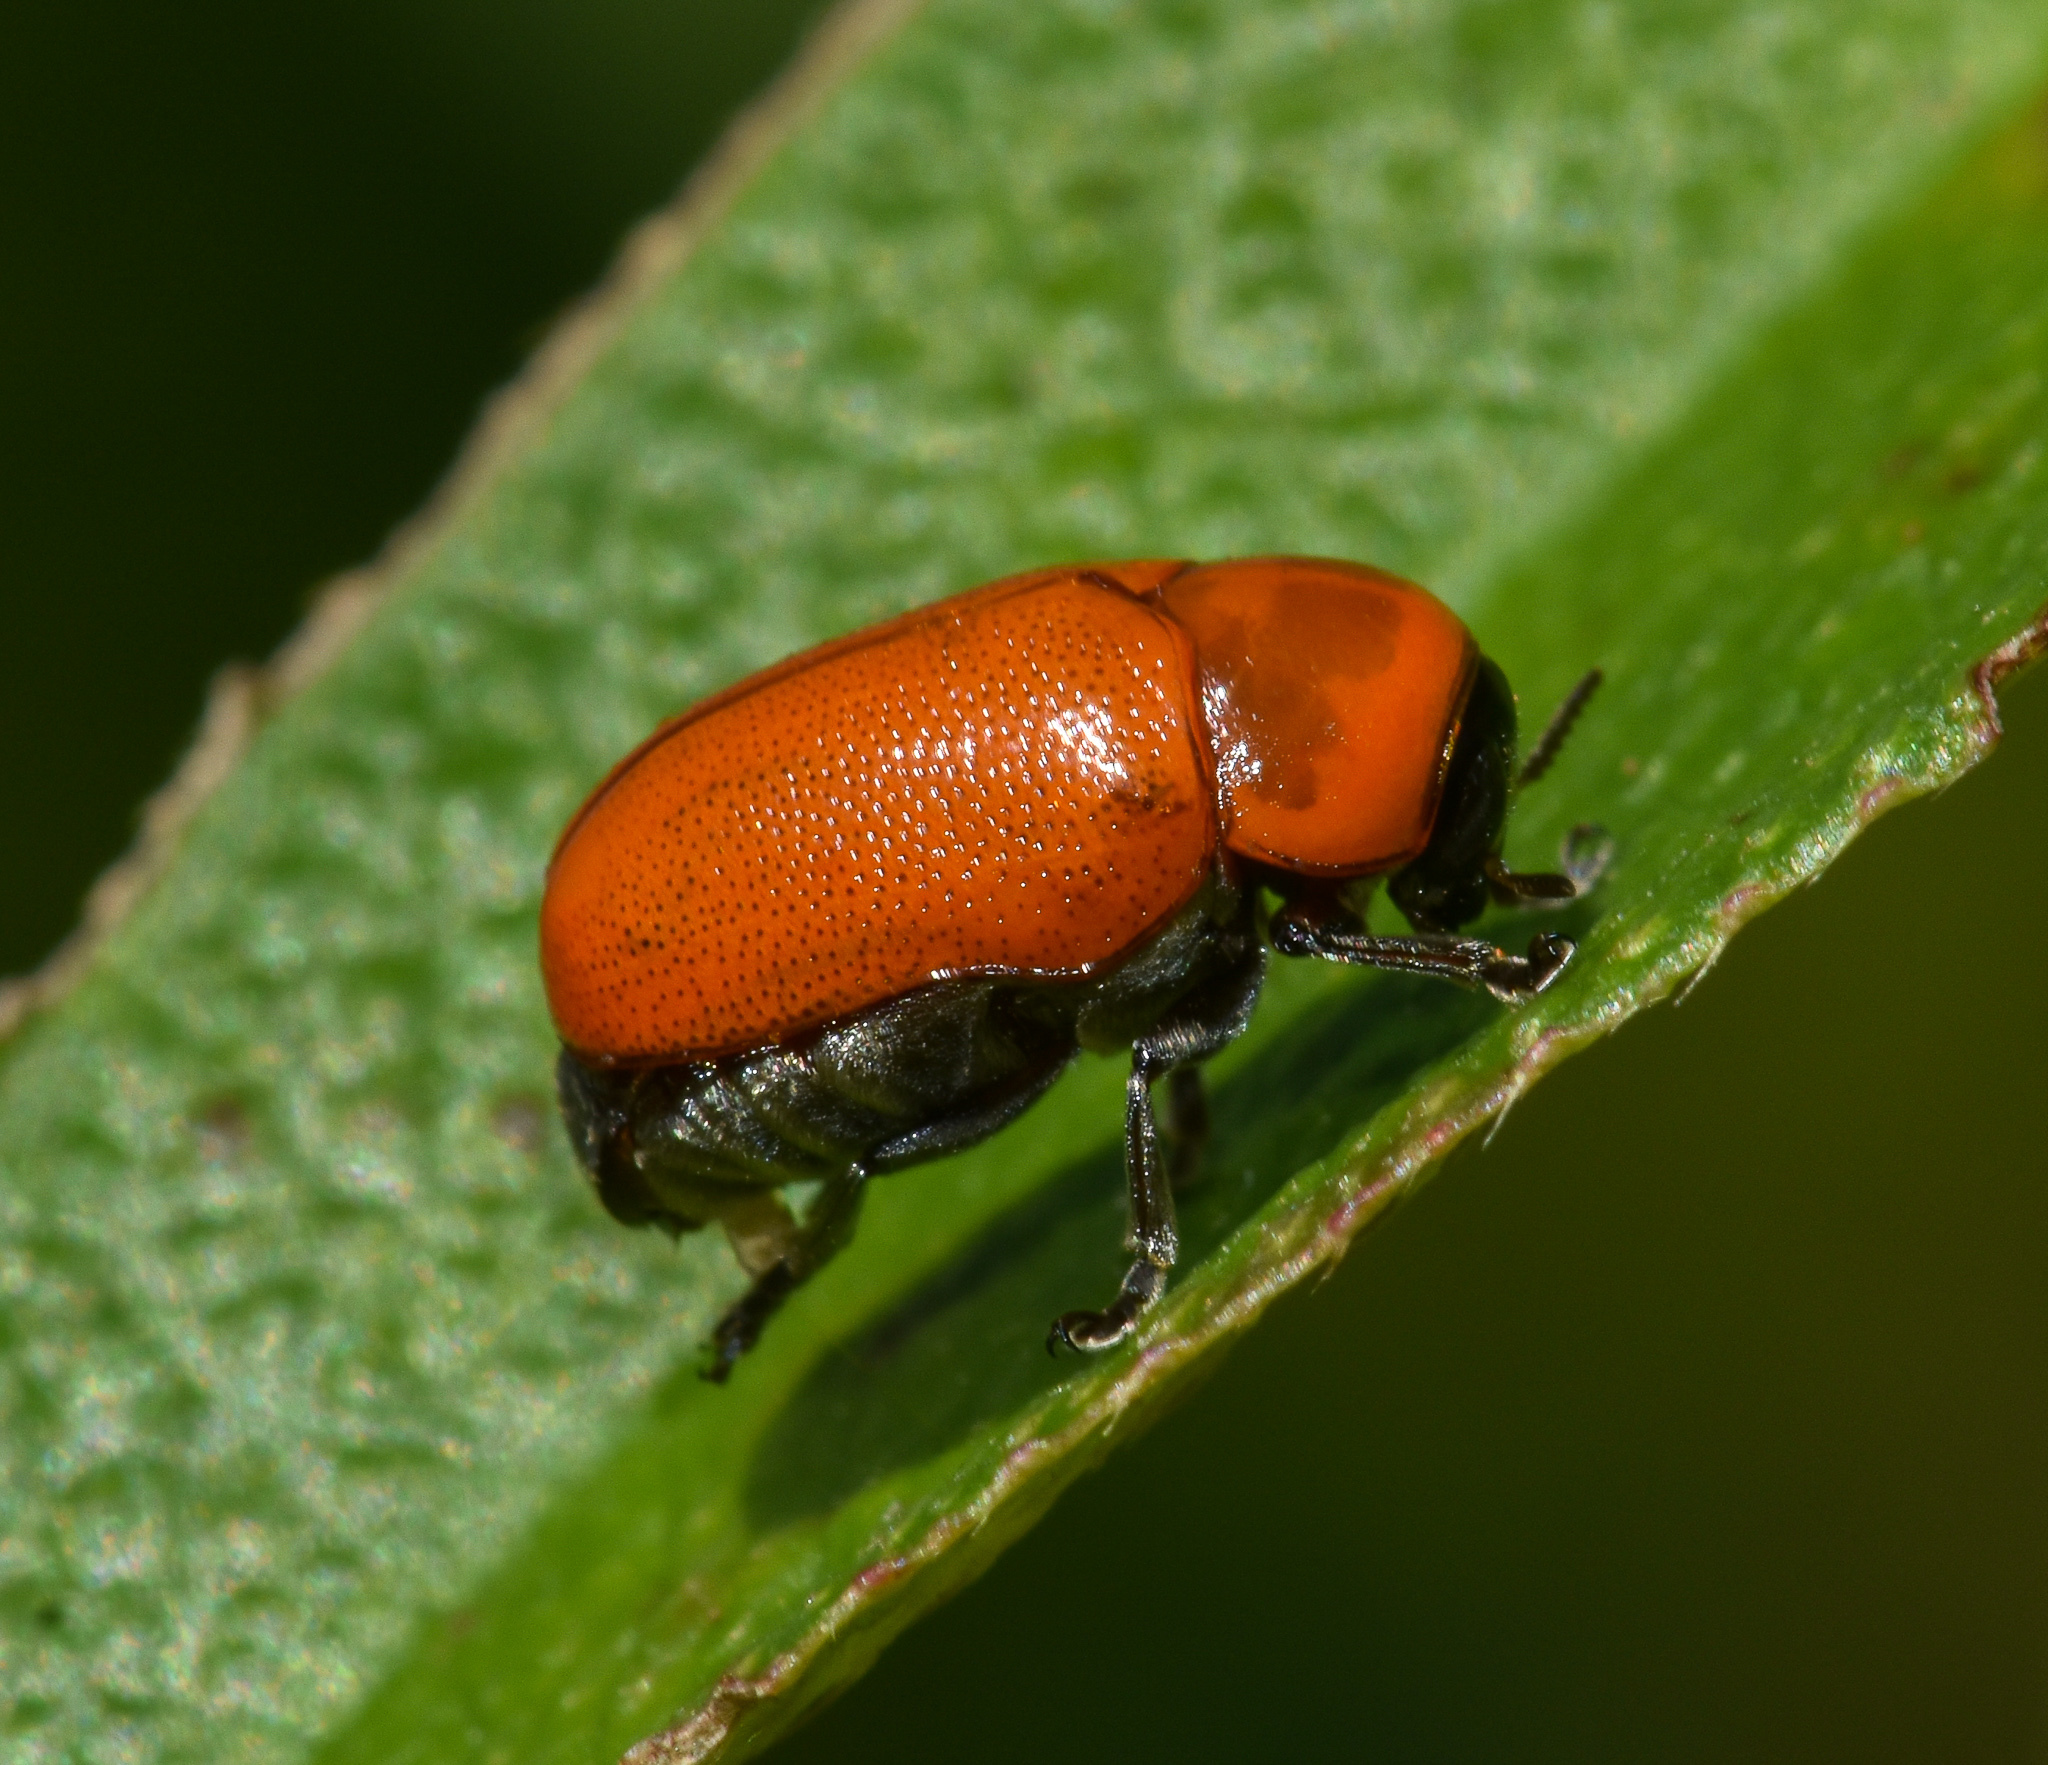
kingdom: Animalia
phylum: Arthropoda
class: Insecta
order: Coleoptera
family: Chrysomelidae
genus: Diapromorpha
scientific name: Diapromorpha
